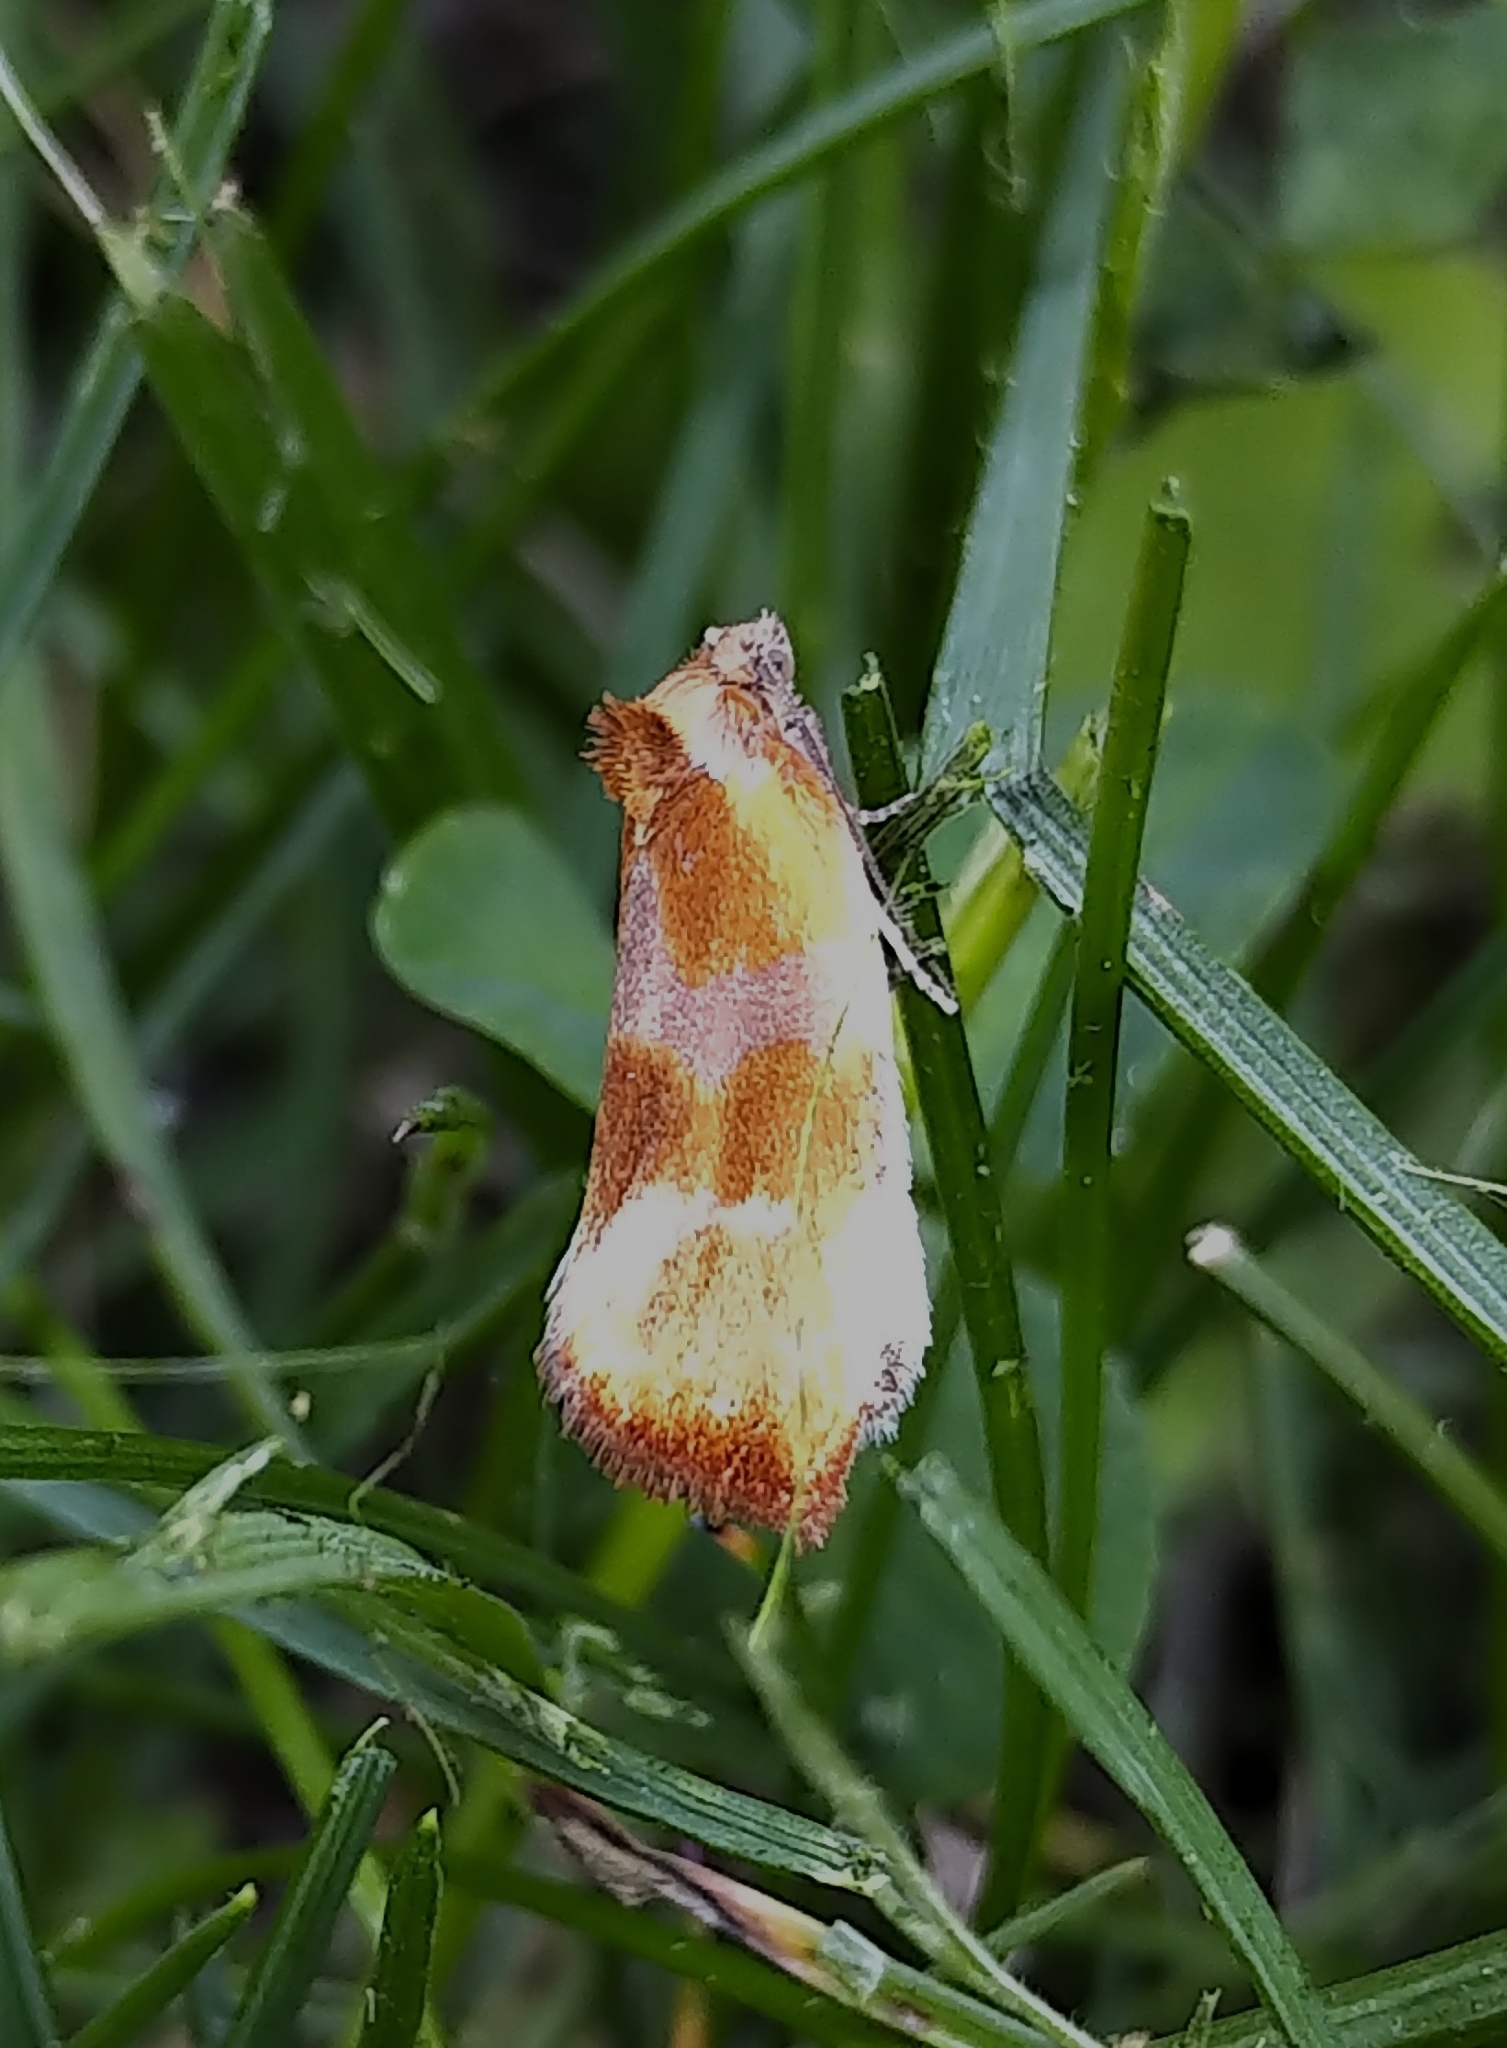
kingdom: Animalia
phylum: Arthropoda
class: Insecta
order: Lepidoptera
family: Tortricidae
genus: Eulia
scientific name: Eulia ministrana
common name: Brassy twist
